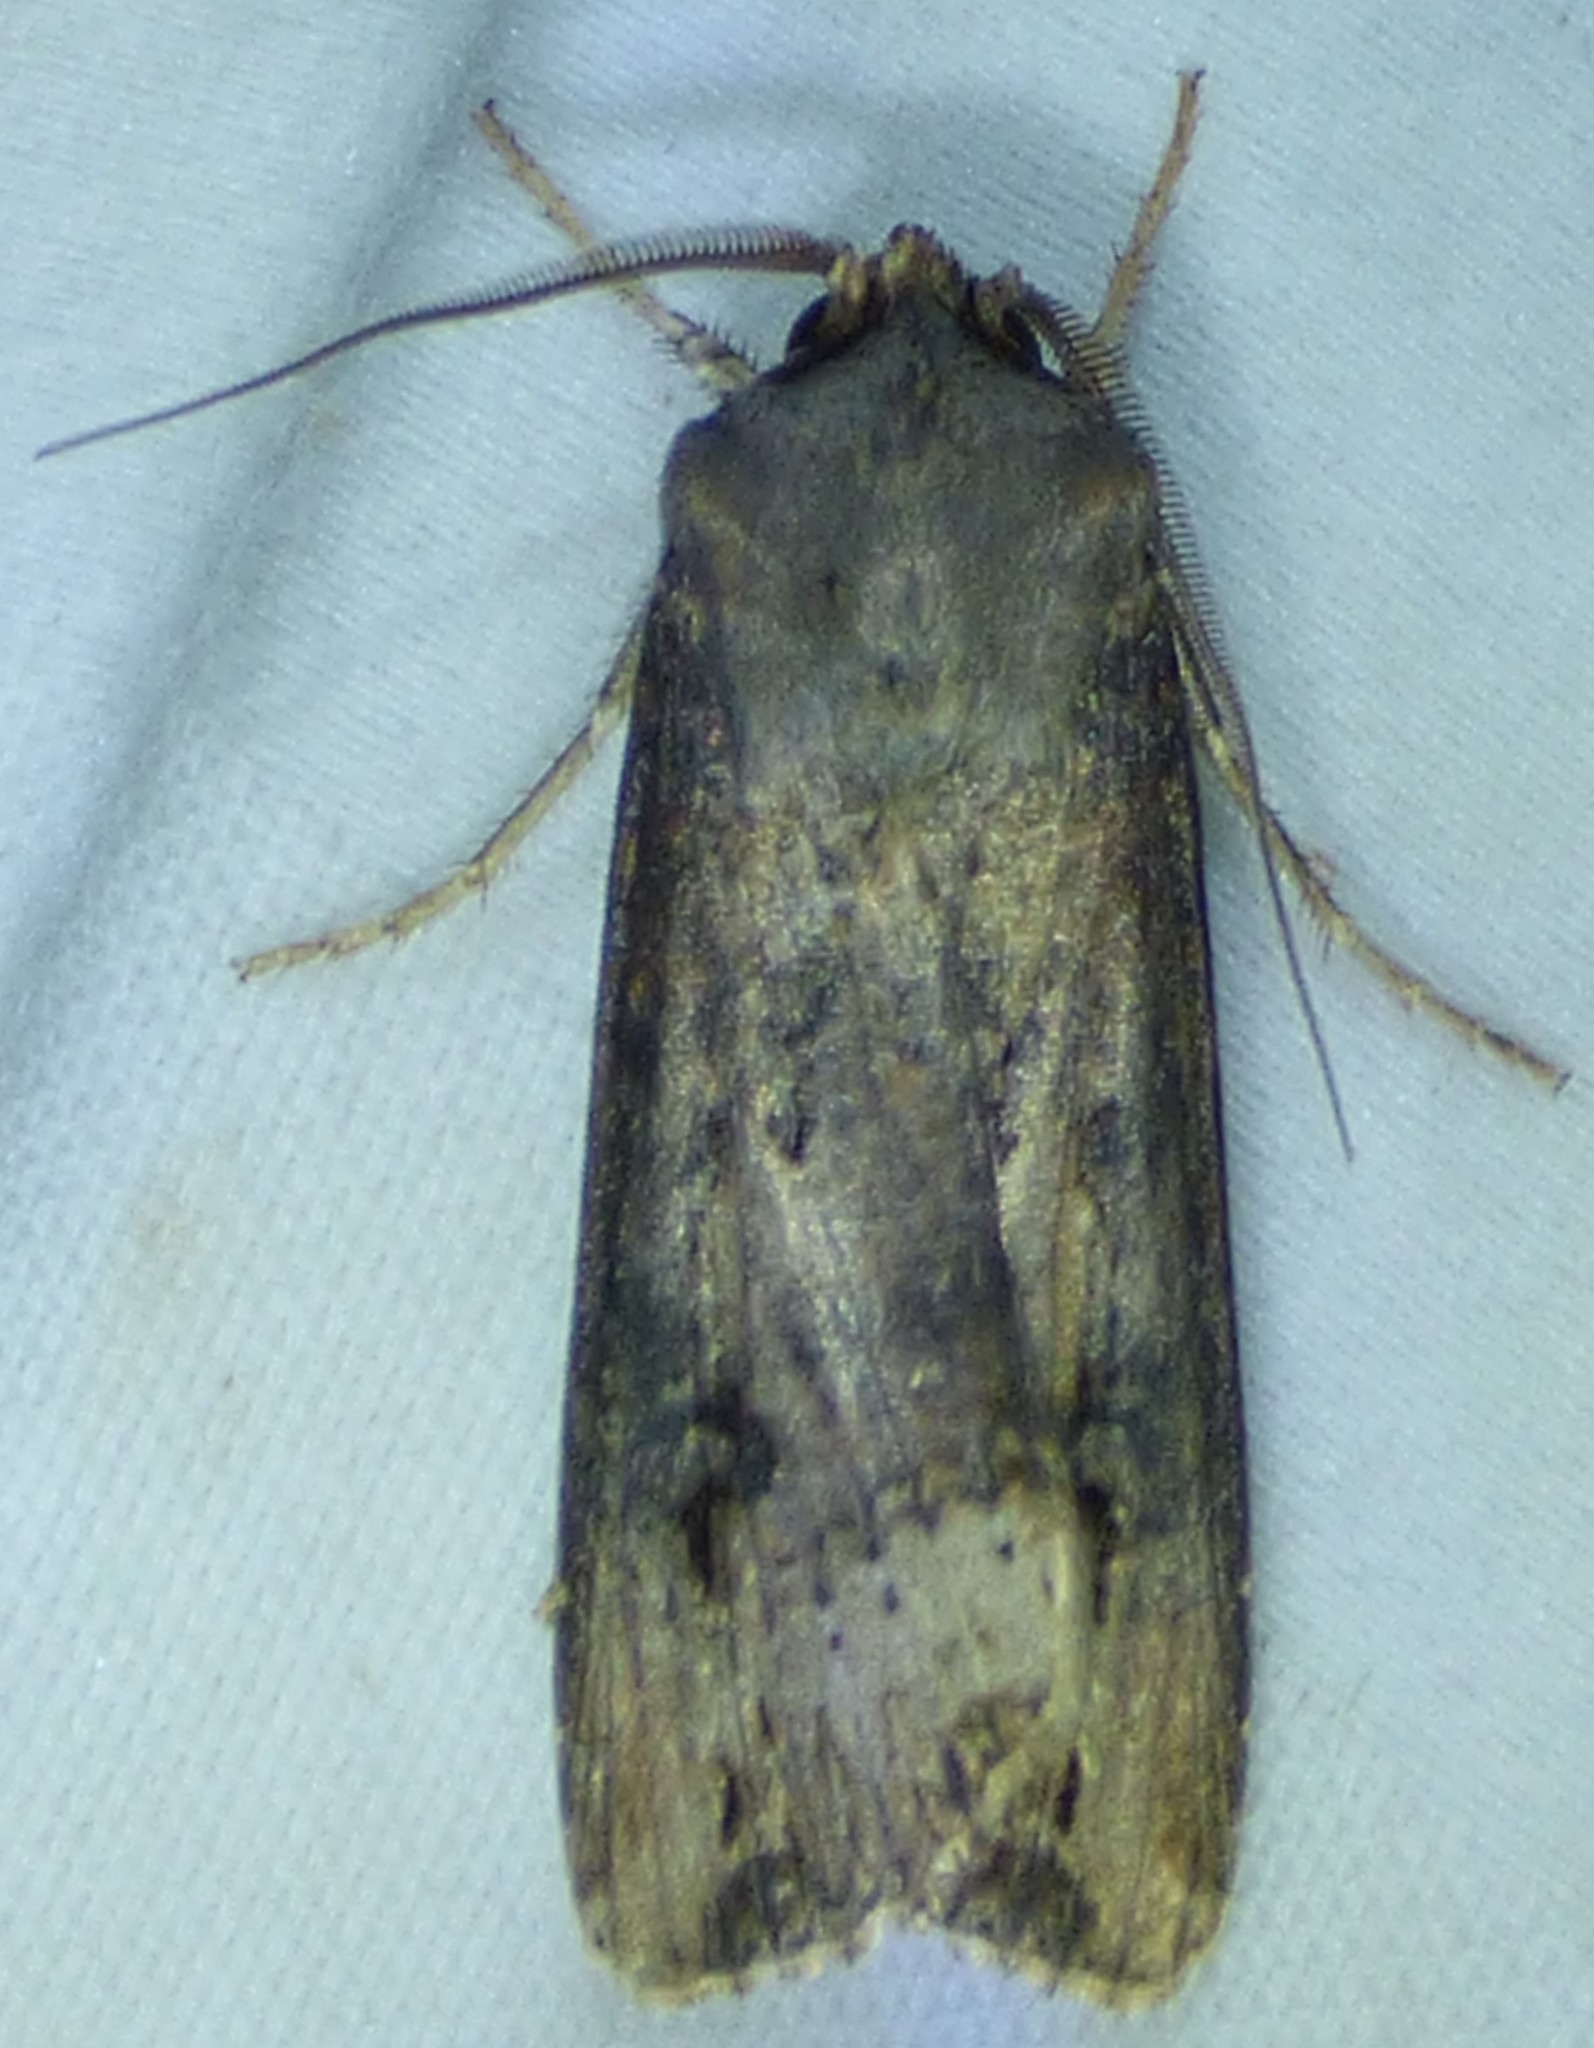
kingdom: Animalia
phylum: Arthropoda
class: Insecta
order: Lepidoptera
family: Noctuidae
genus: Agrotis
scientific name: Agrotis ipsilon
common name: Dark sword-grass
